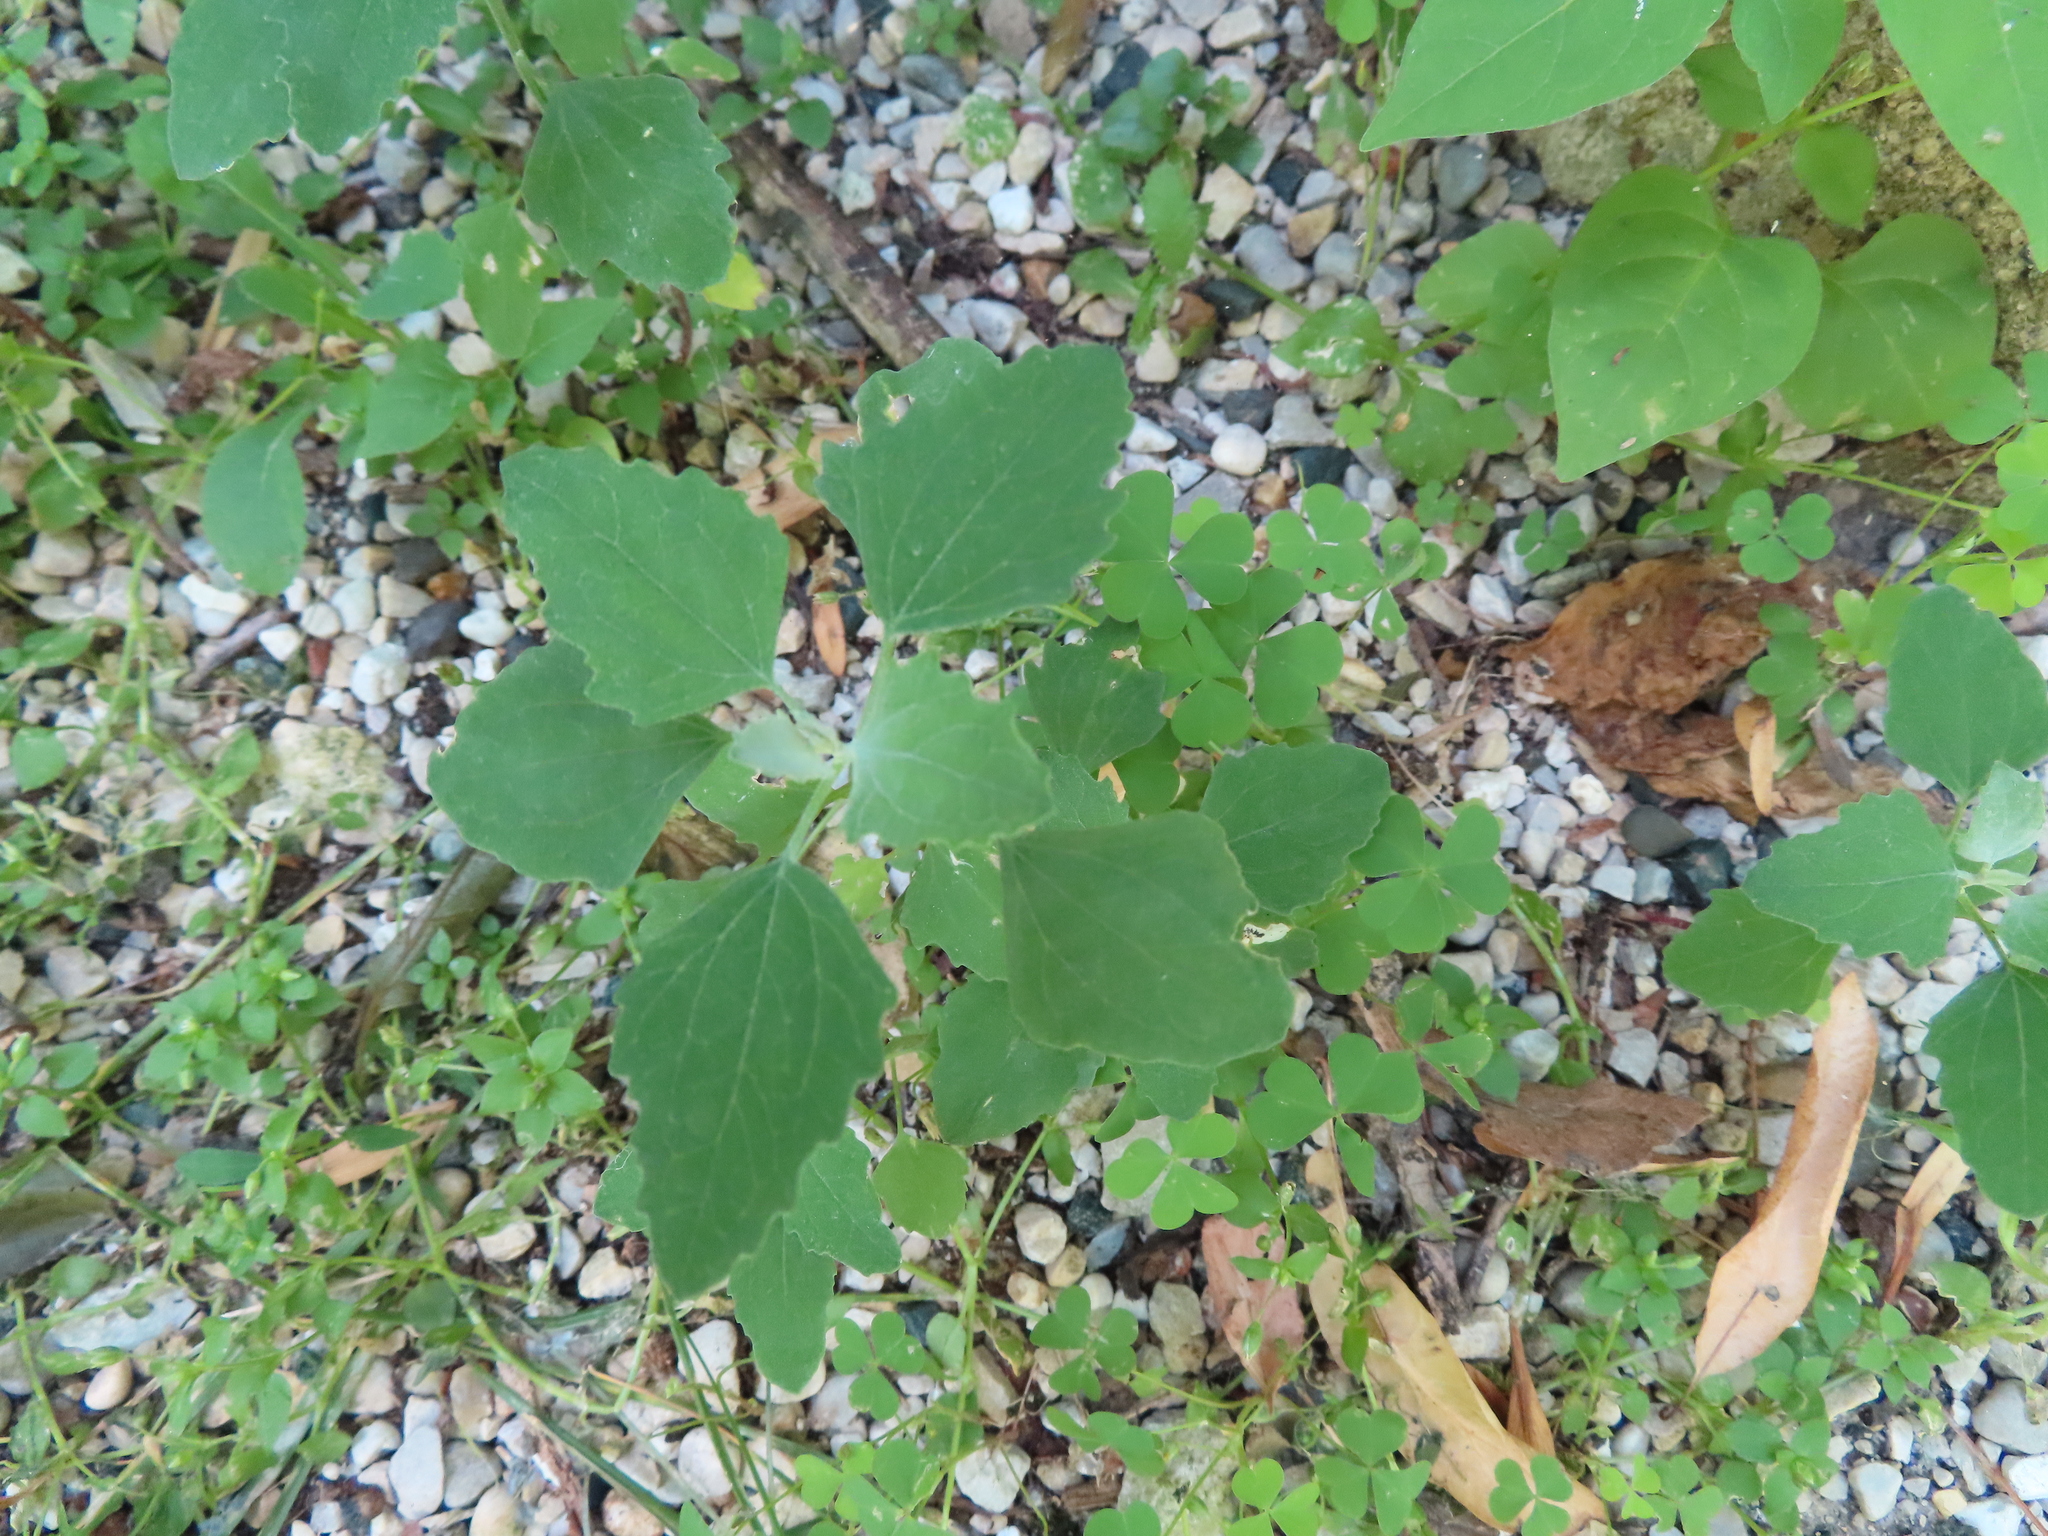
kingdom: Plantae
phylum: Tracheophyta
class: Magnoliopsida
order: Caryophyllales
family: Amaranthaceae
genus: Chenopodium
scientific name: Chenopodium album
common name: Fat-hen
